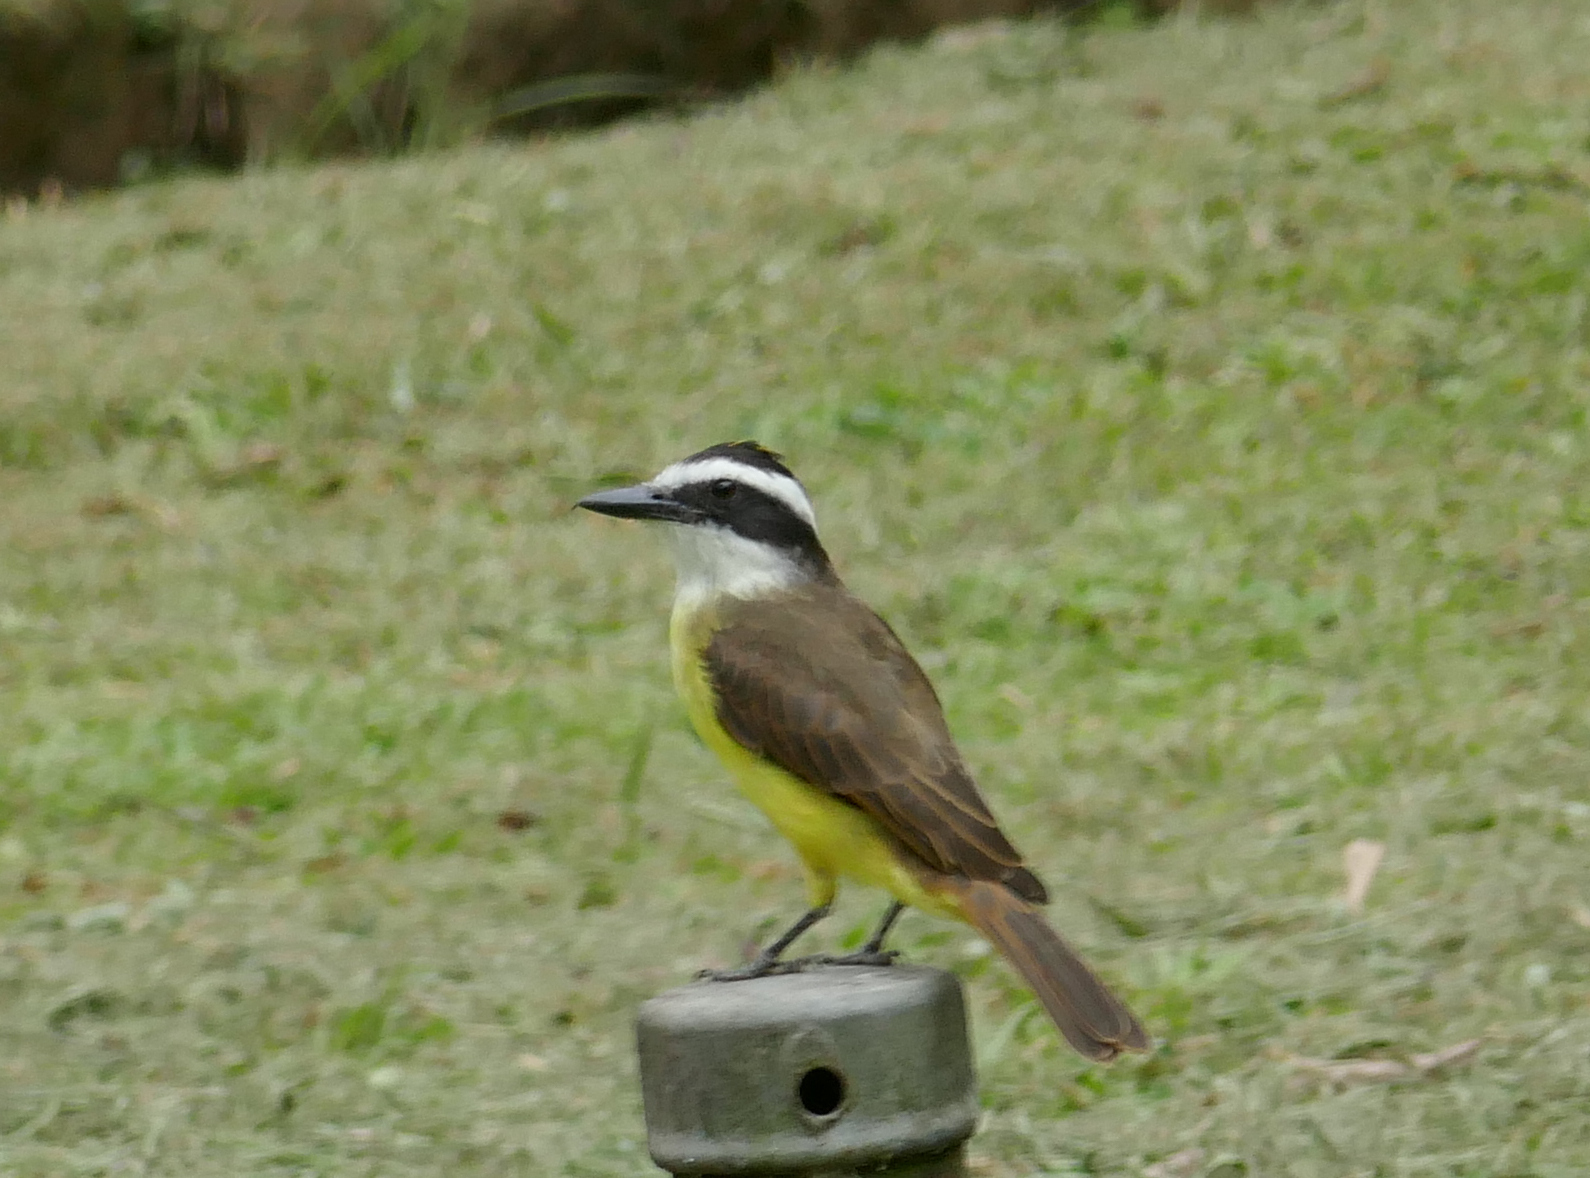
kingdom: Animalia
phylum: Chordata
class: Aves
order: Passeriformes
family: Tyrannidae
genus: Pitangus
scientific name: Pitangus sulphuratus
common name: Great kiskadee
